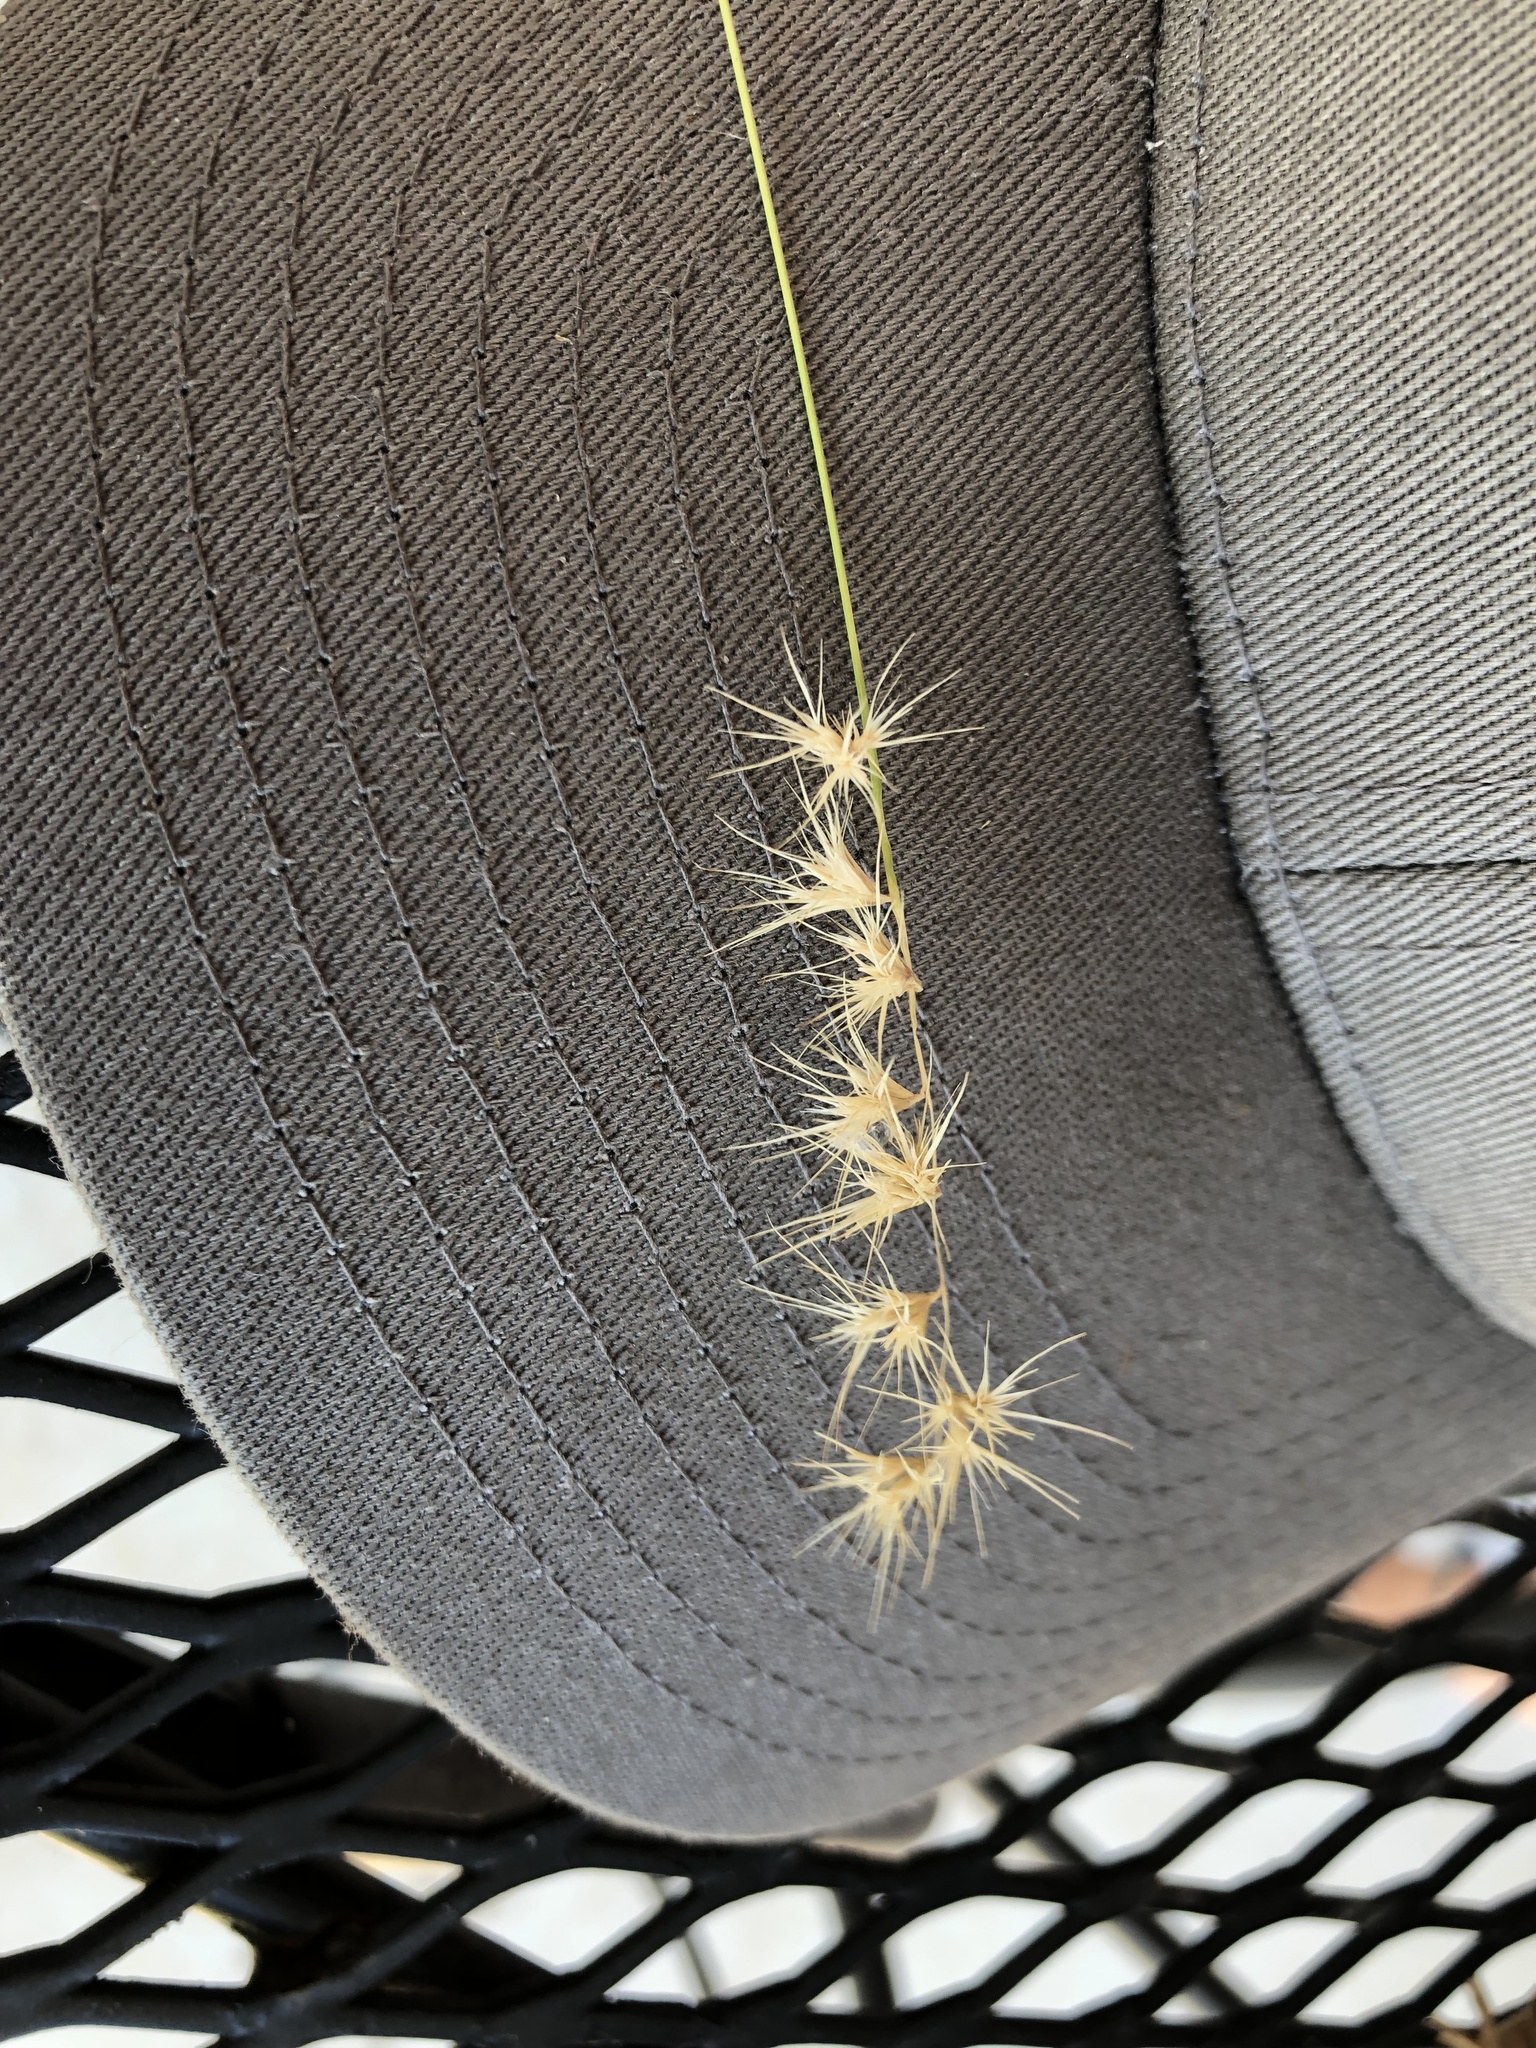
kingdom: Plantae
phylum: Tracheophyta
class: Liliopsida
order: Poales
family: Poaceae
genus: Bouteloua
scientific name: Bouteloua rigidiseta
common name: Texas grama
